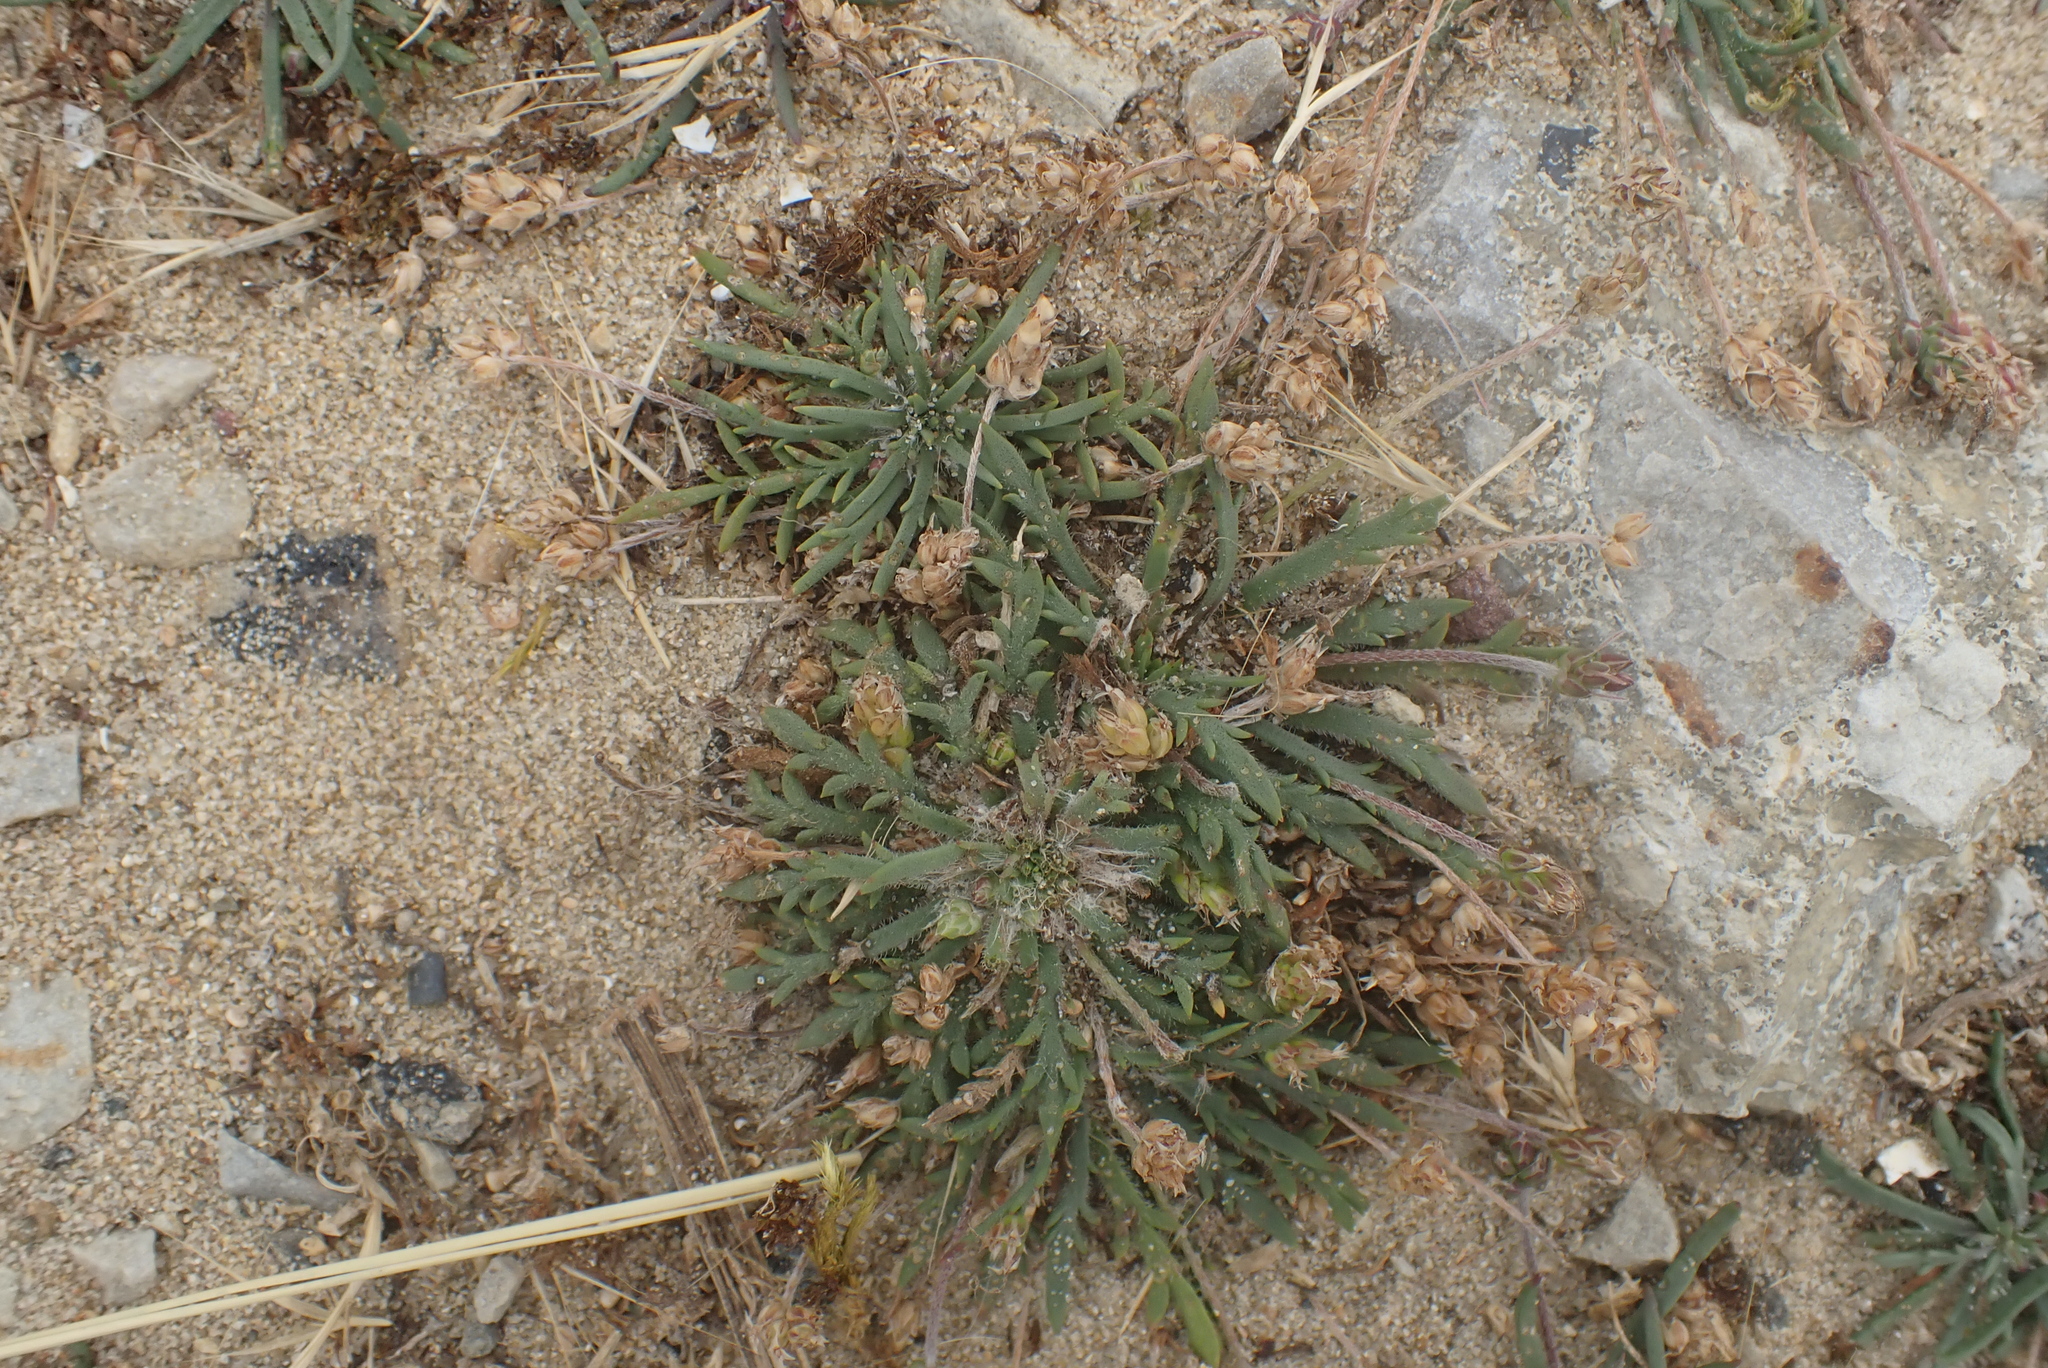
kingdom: Plantae
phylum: Tracheophyta
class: Magnoliopsida
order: Lamiales
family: Plantaginaceae
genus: Plantago
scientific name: Plantago coronopus
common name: Buck's-horn plantain
